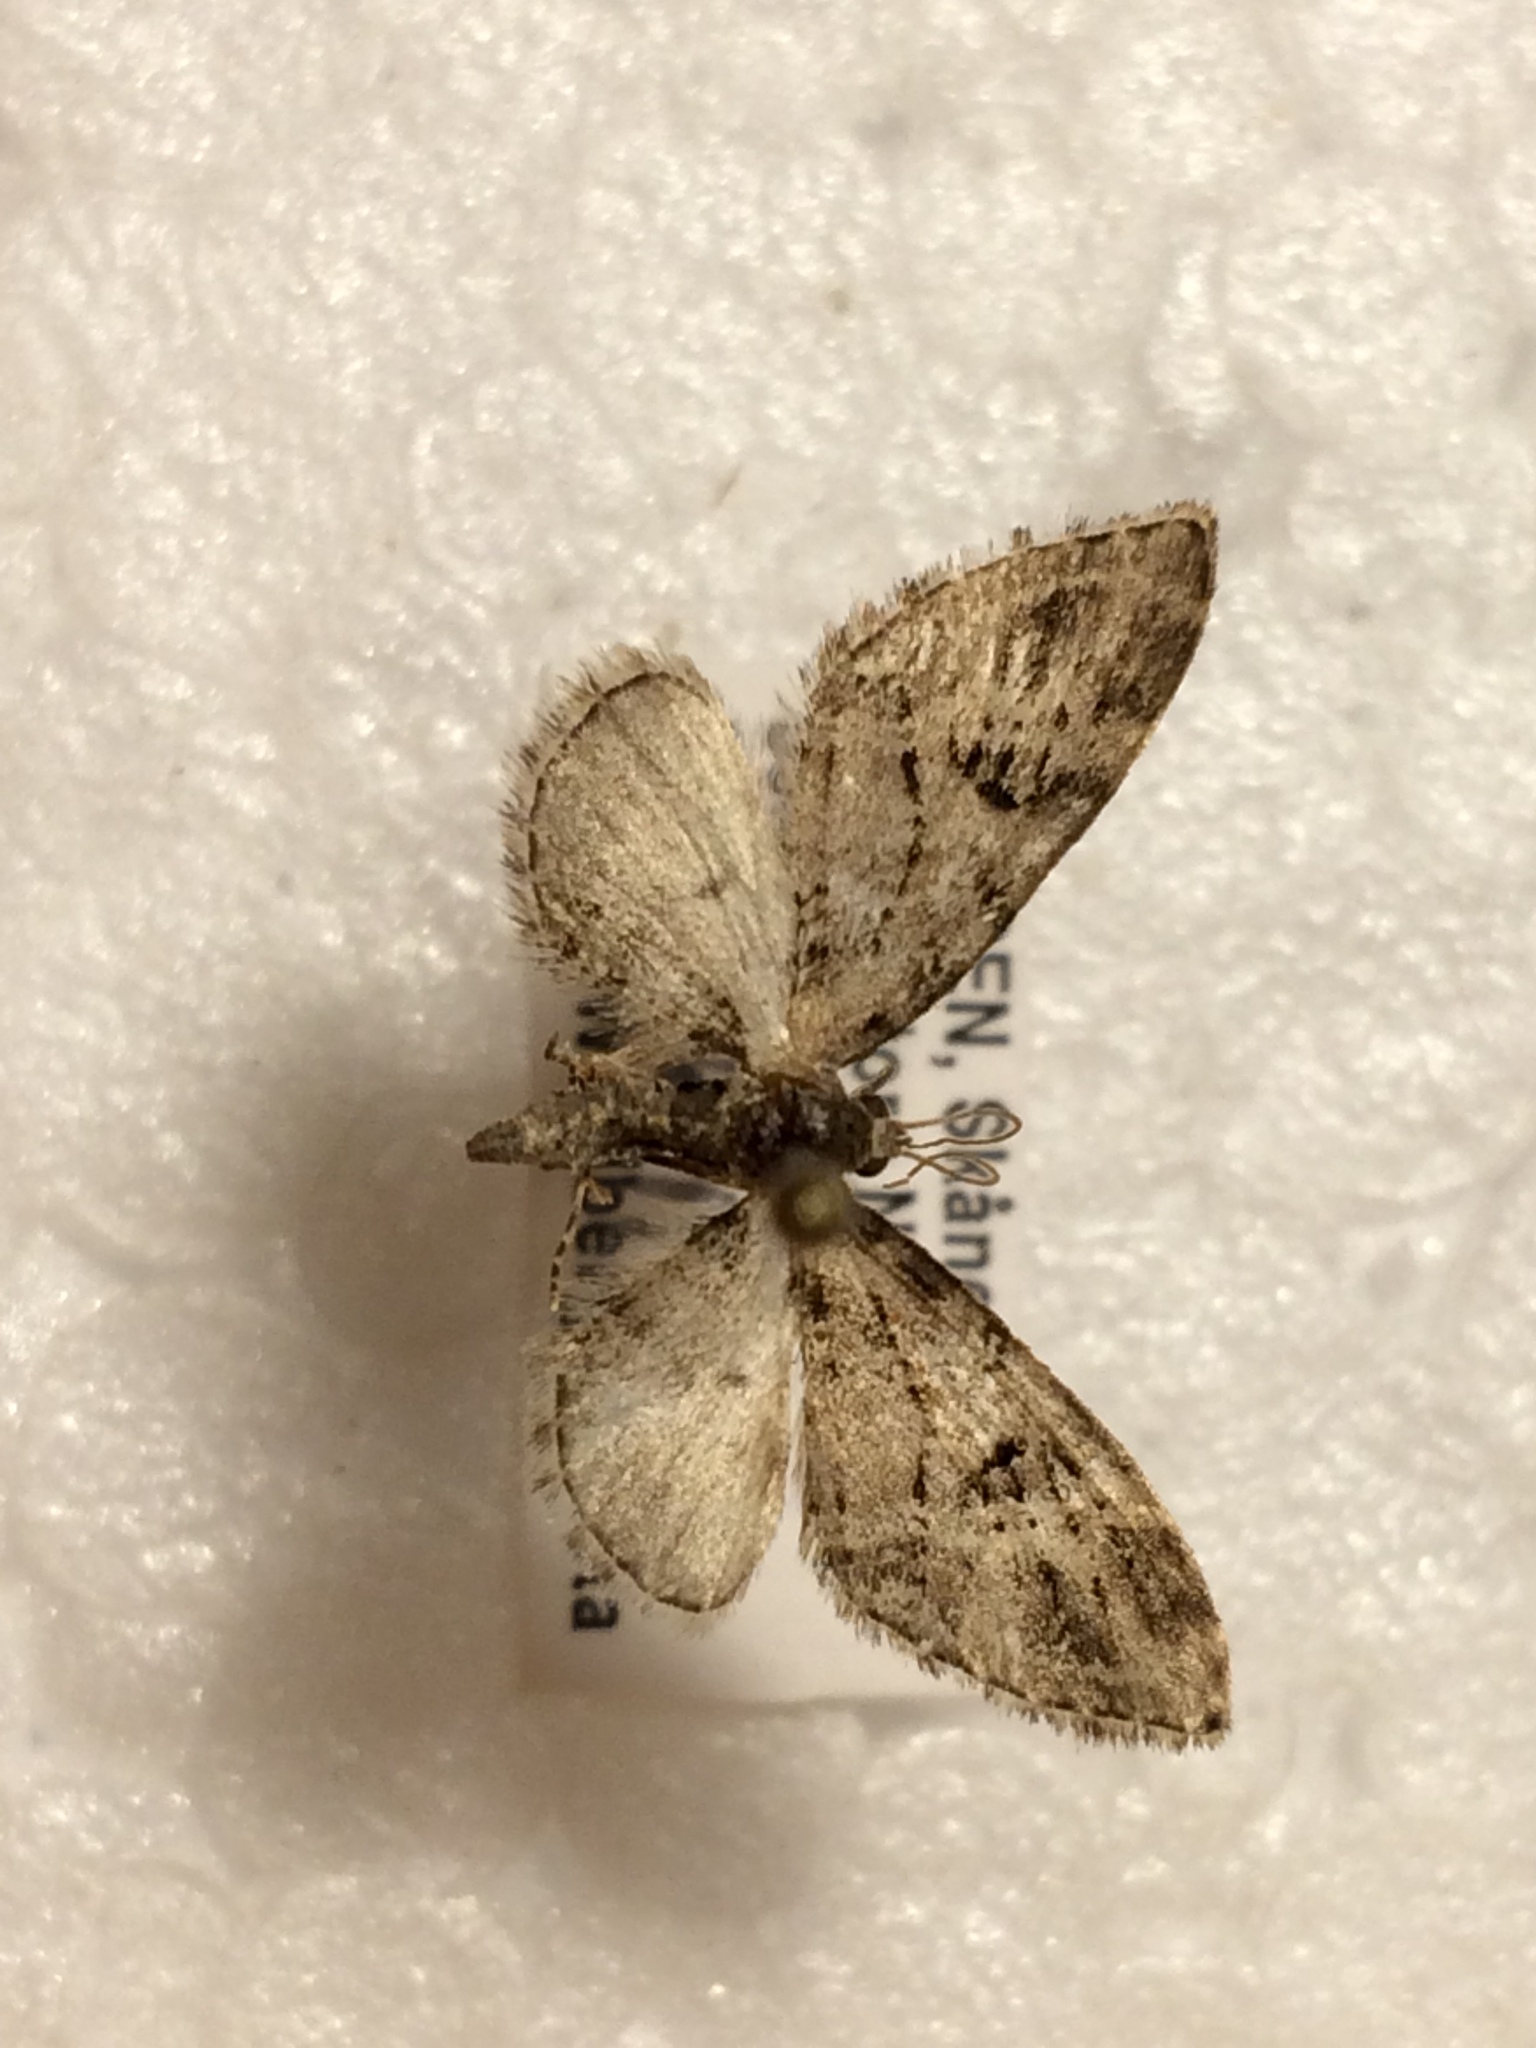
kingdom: Animalia
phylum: Arthropoda
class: Insecta
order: Lepidoptera
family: Geometridae
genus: Eupithecia
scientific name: Eupithecia exiguata
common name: Mottled pug
